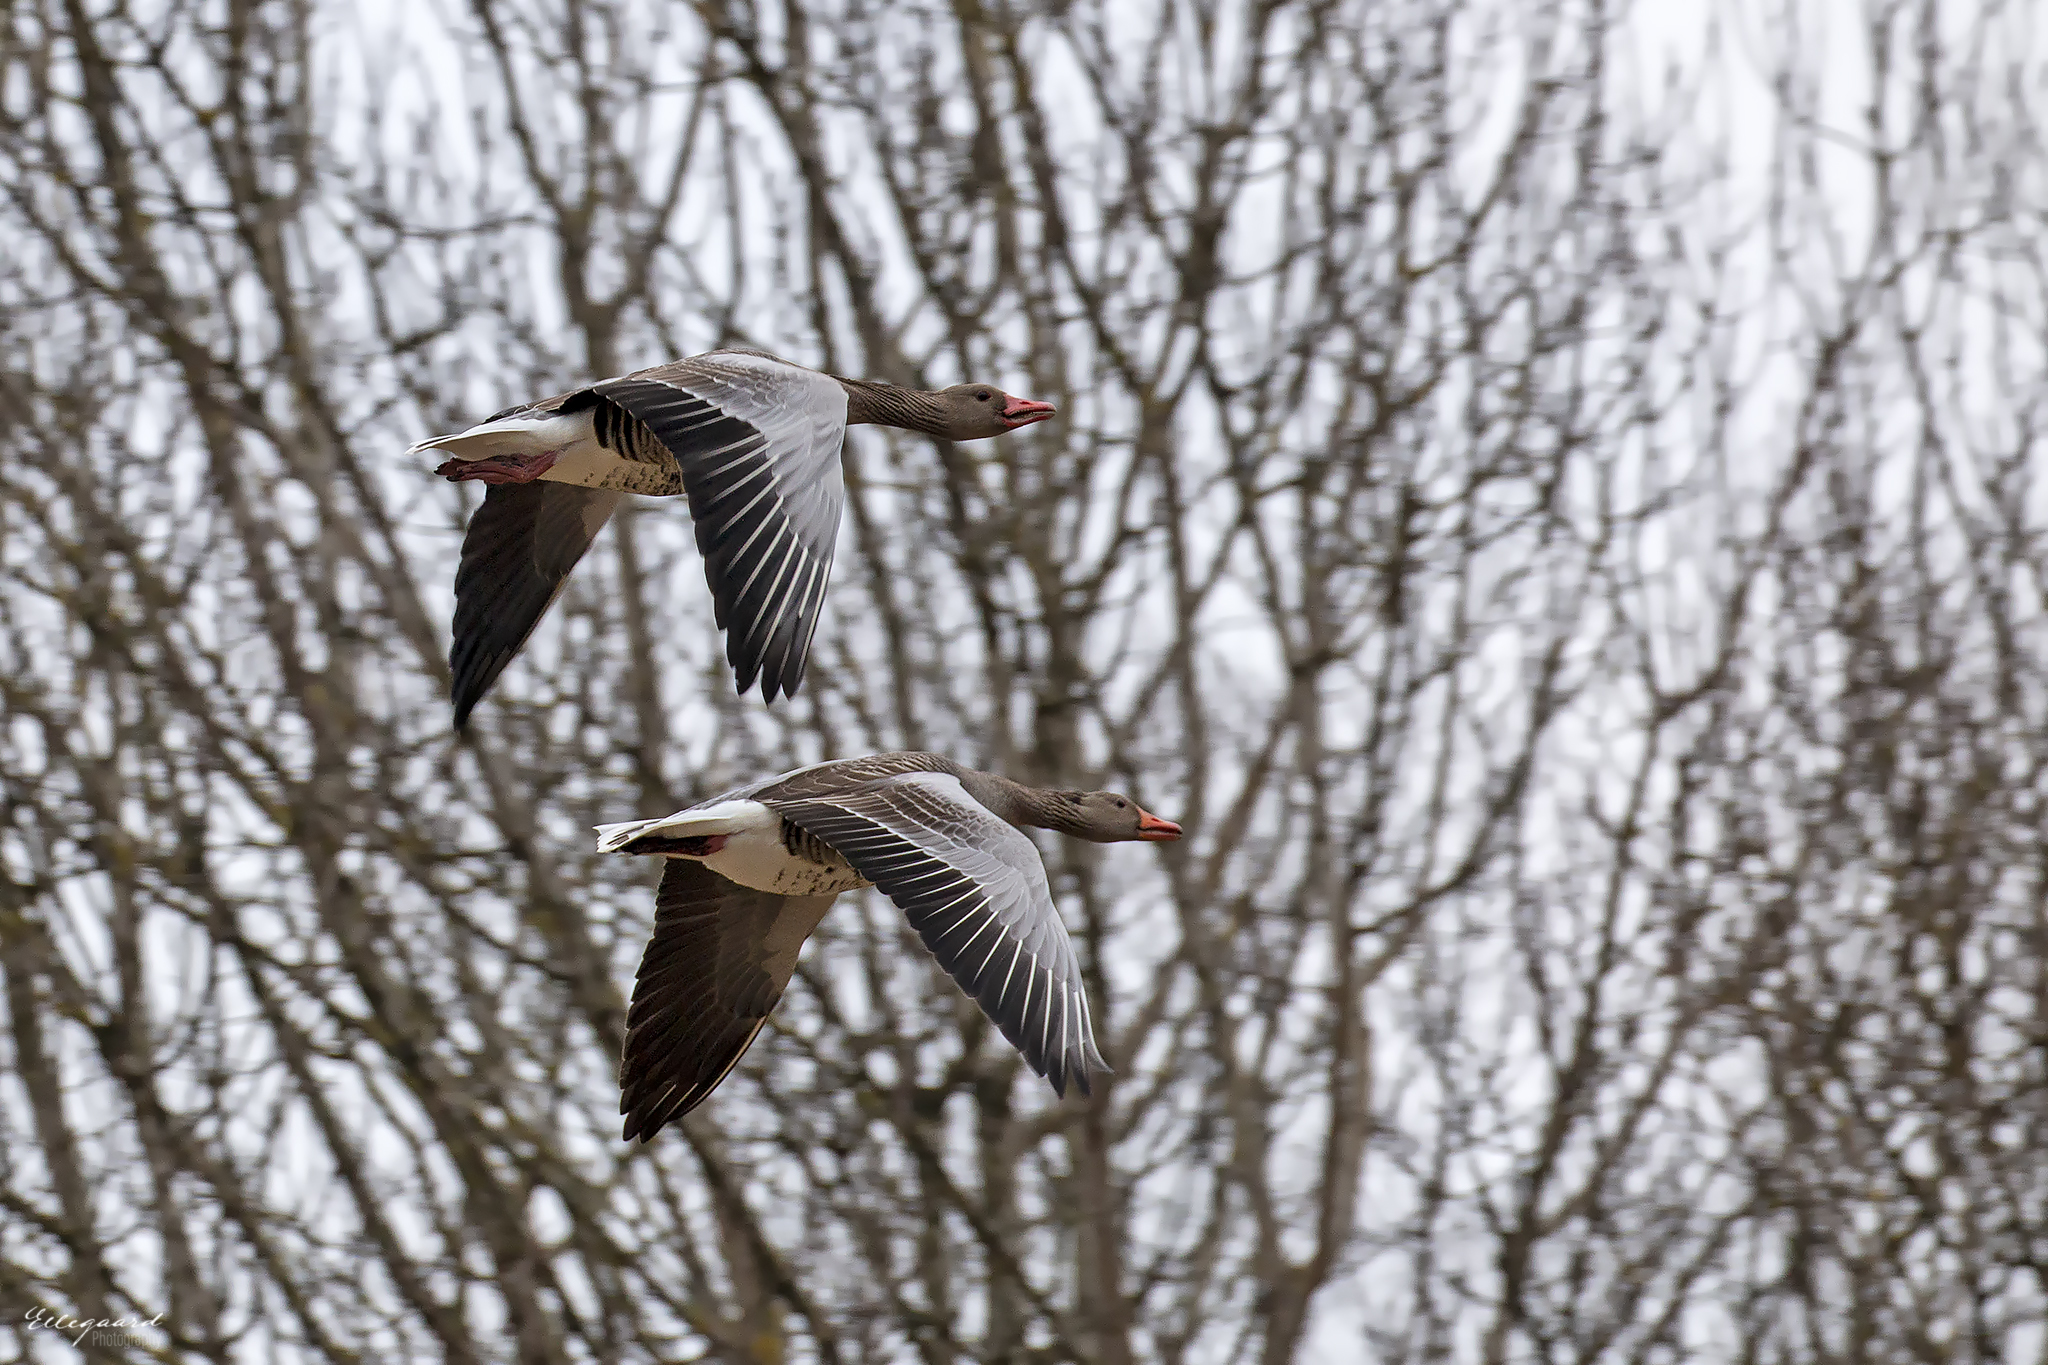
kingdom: Animalia
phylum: Chordata
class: Aves
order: Anseriformes
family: Anatidae
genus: Anser
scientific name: Anser anser
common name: Greylag goose
